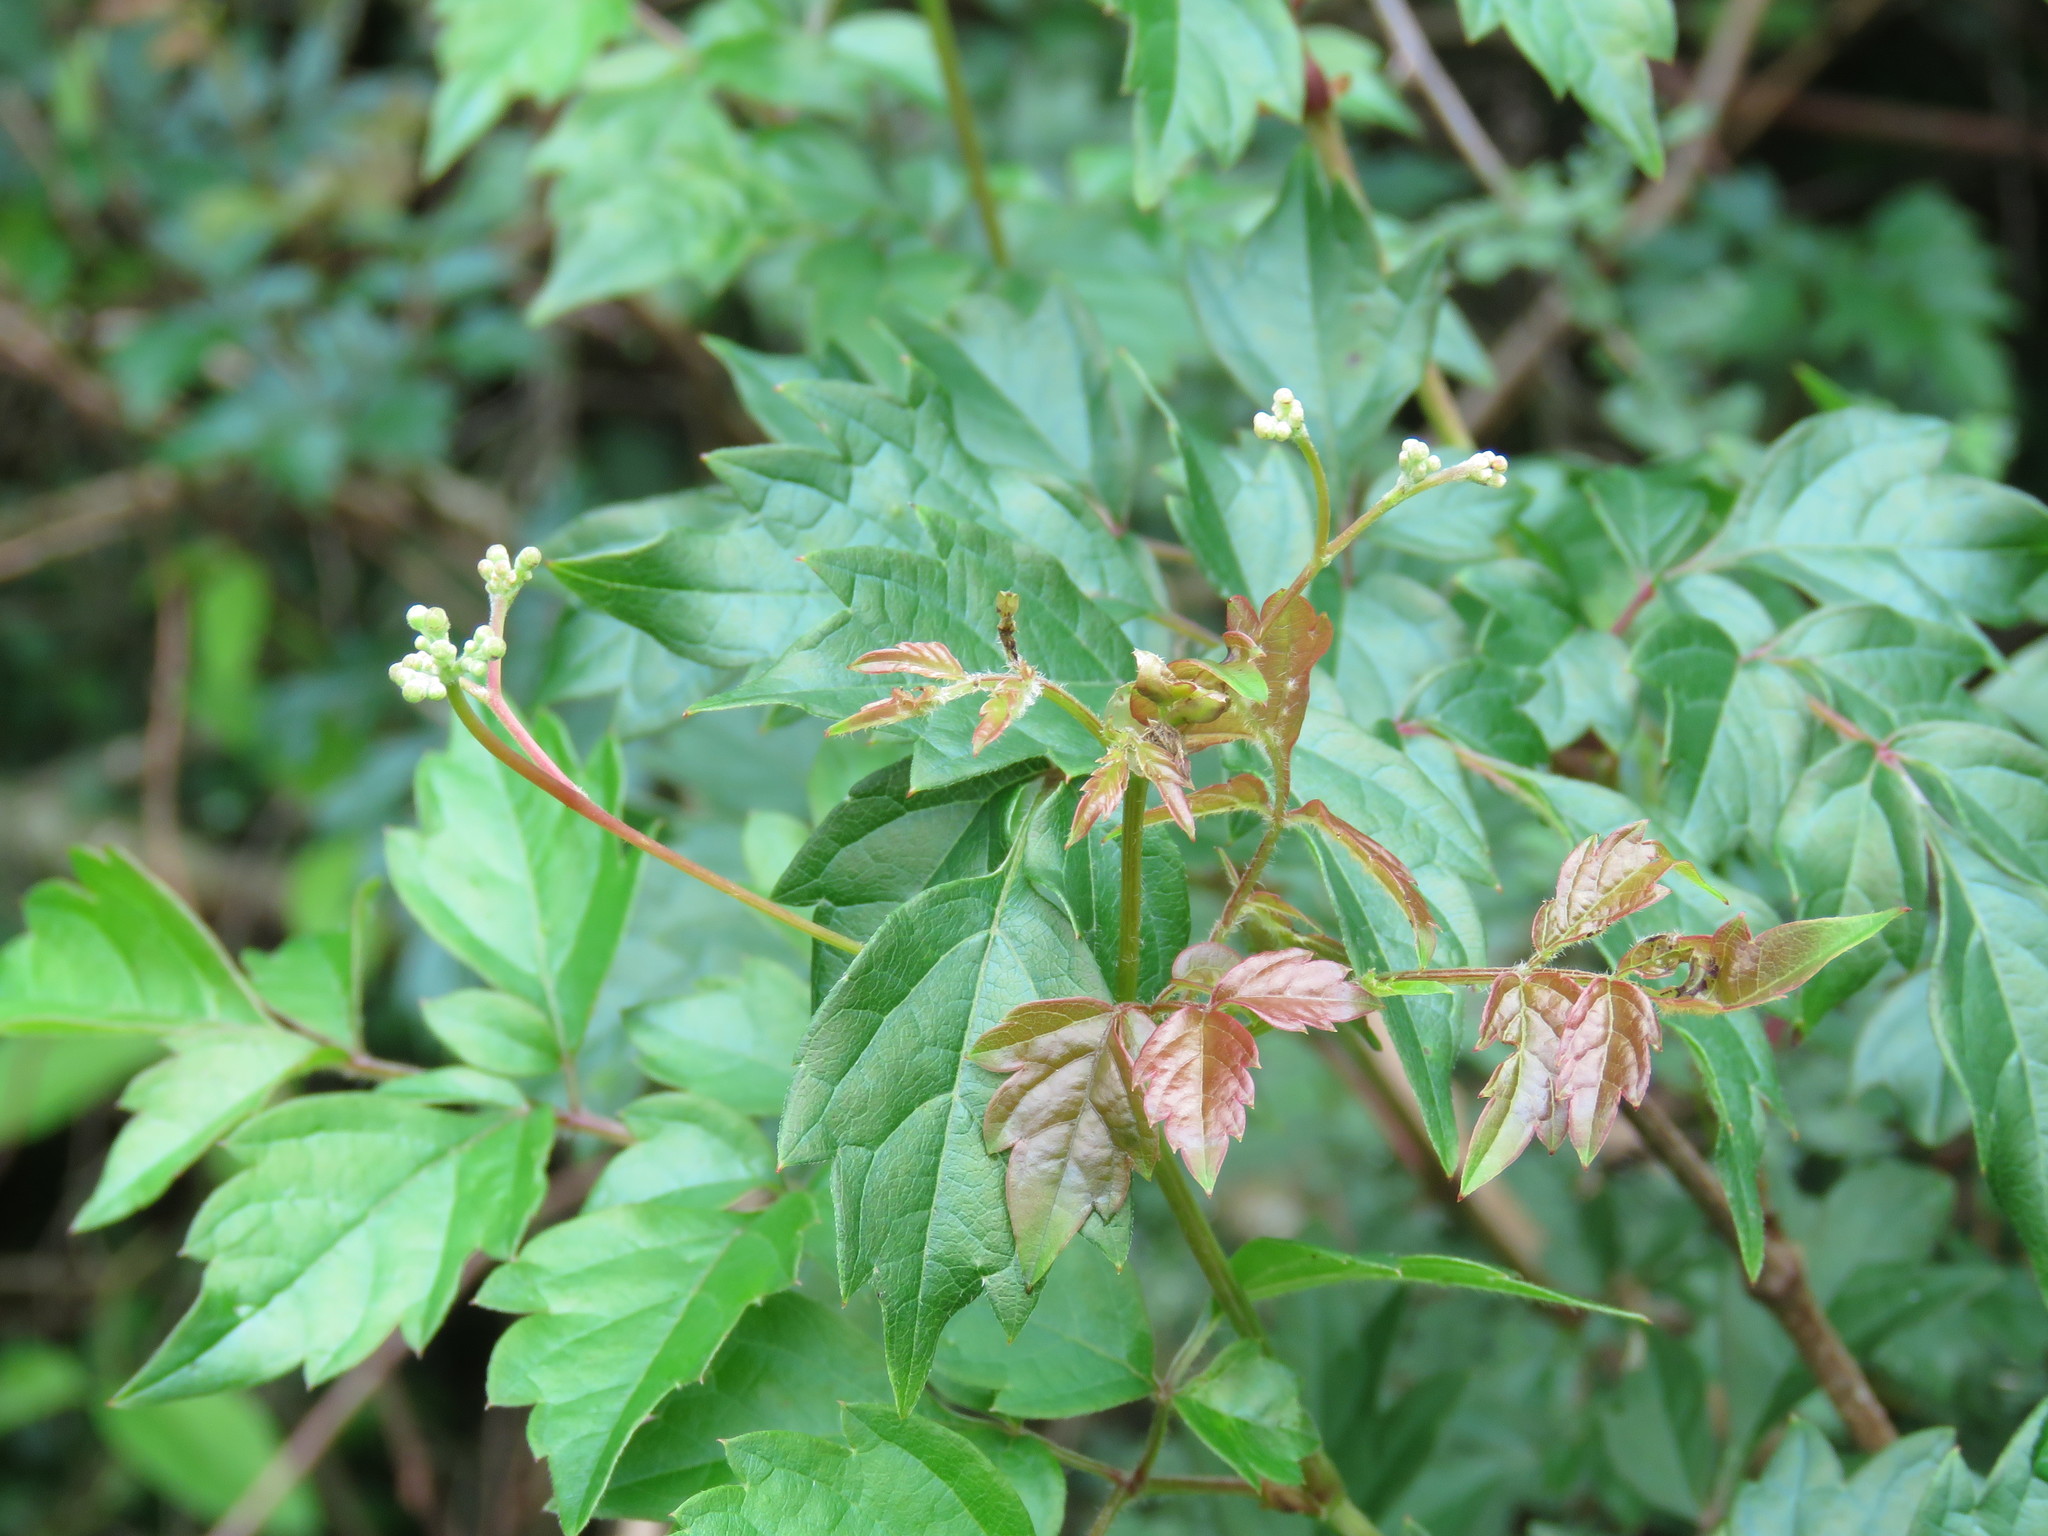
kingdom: Plantae
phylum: Tracheophyta
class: Magnoliopsida
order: Vitales
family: Vitaceae
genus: Nekemias
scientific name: Nekemias arborea
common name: Peppervine
